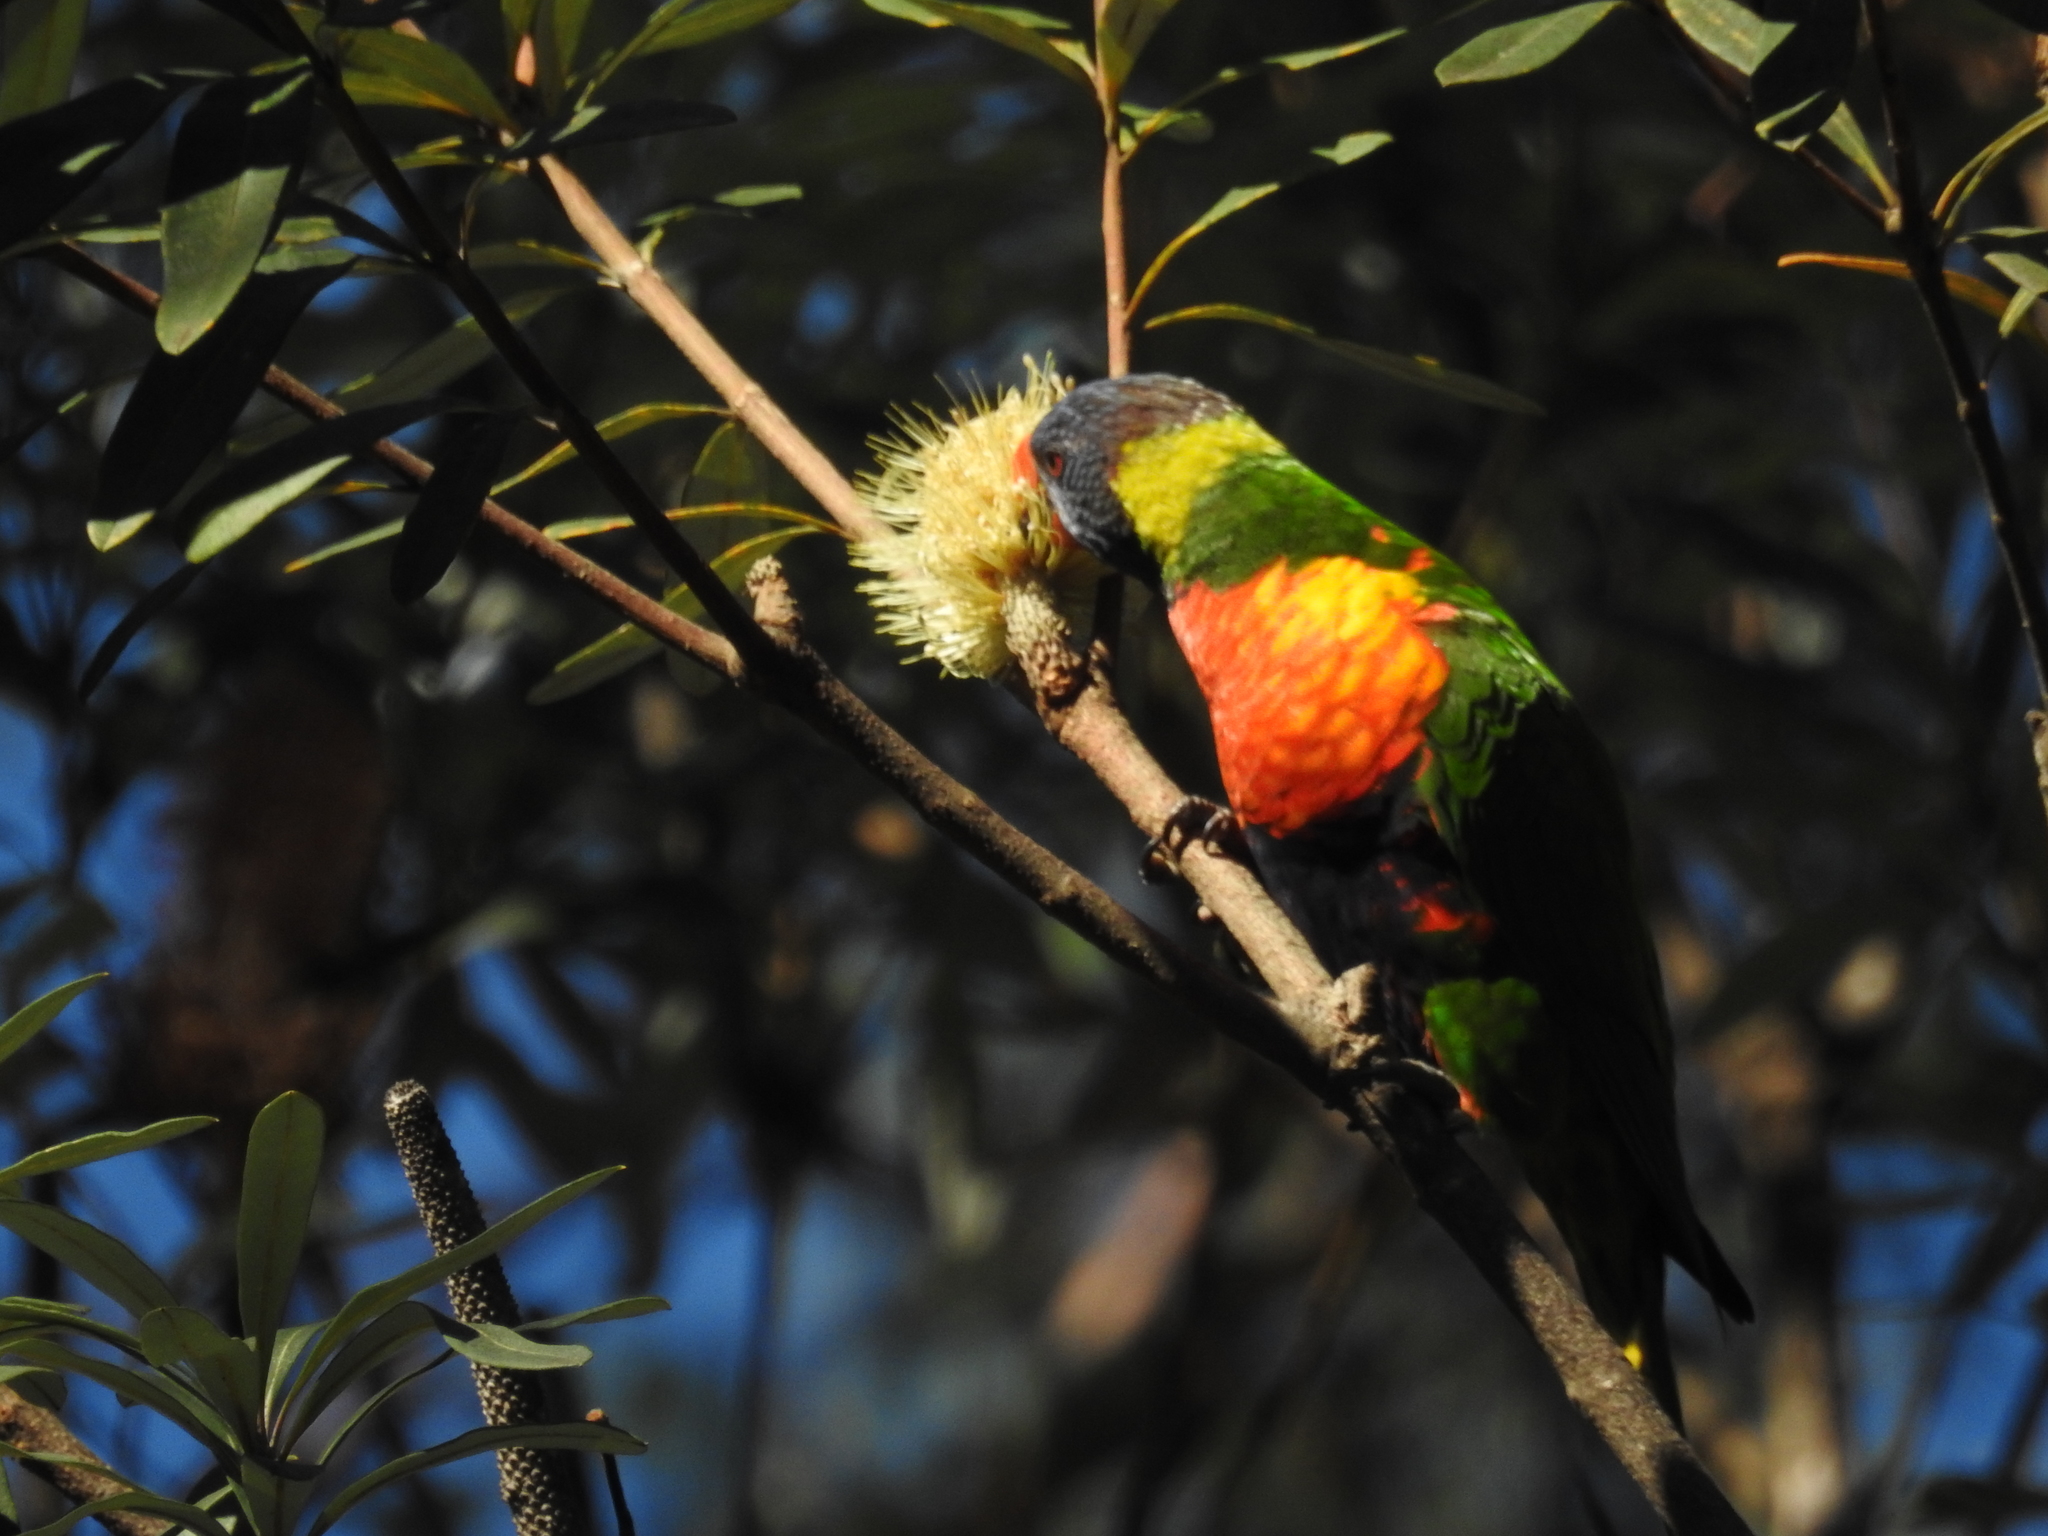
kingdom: Animalia
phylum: Chordata
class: Aves
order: Psittaciformes
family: Psittacidae
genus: Trichoglossus
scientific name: Trichoglossus haematodus
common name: Coconut lorikeet
